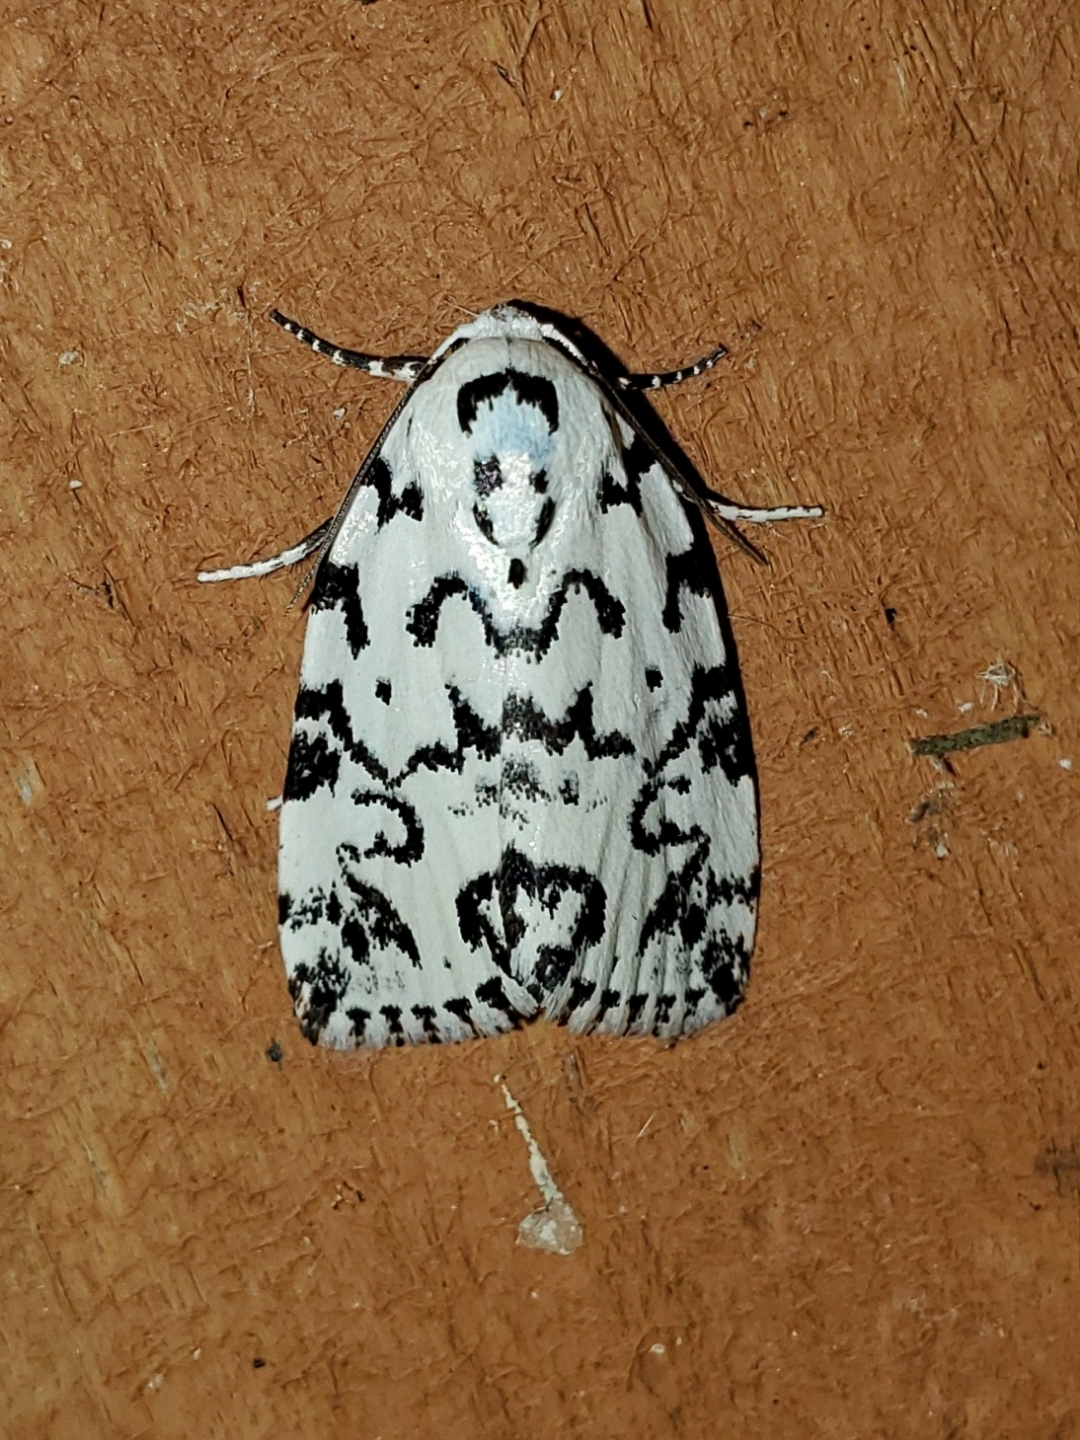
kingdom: Animalia
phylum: Arthropoda
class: Insecta
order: Lepidoptera
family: Noctuidae
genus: Polygrammate
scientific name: Polygrammate hebraeicum
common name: Hebrew moth
